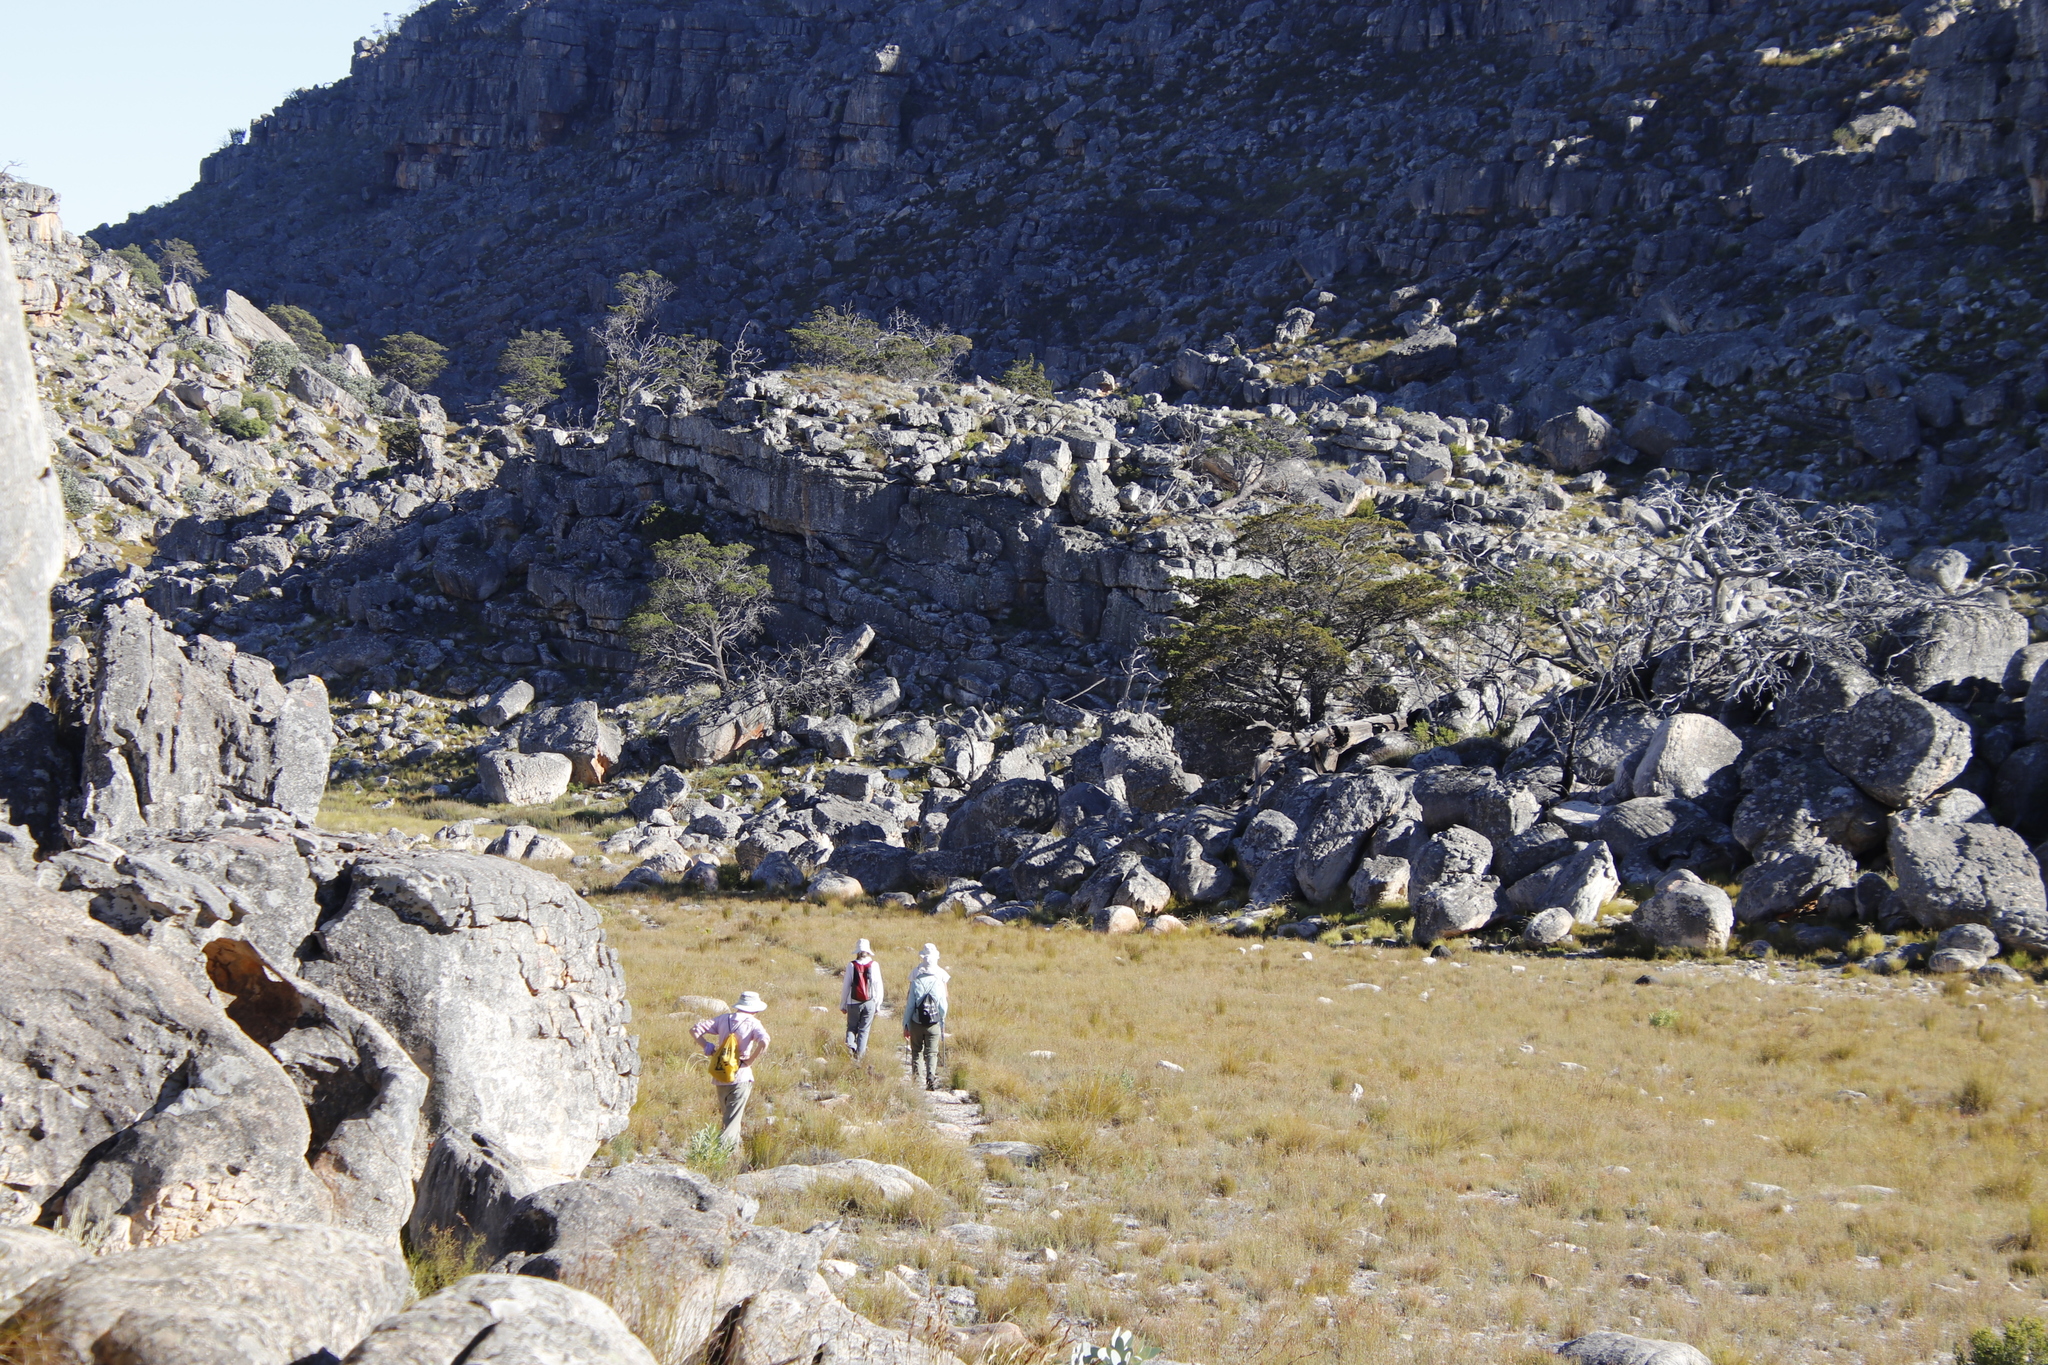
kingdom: Plantae
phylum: Tracheophyta
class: Pinopsida
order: Pinales
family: Cupressaceae
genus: Widdringtonia
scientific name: Widdringtonia nodiflora
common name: Cape cypress
